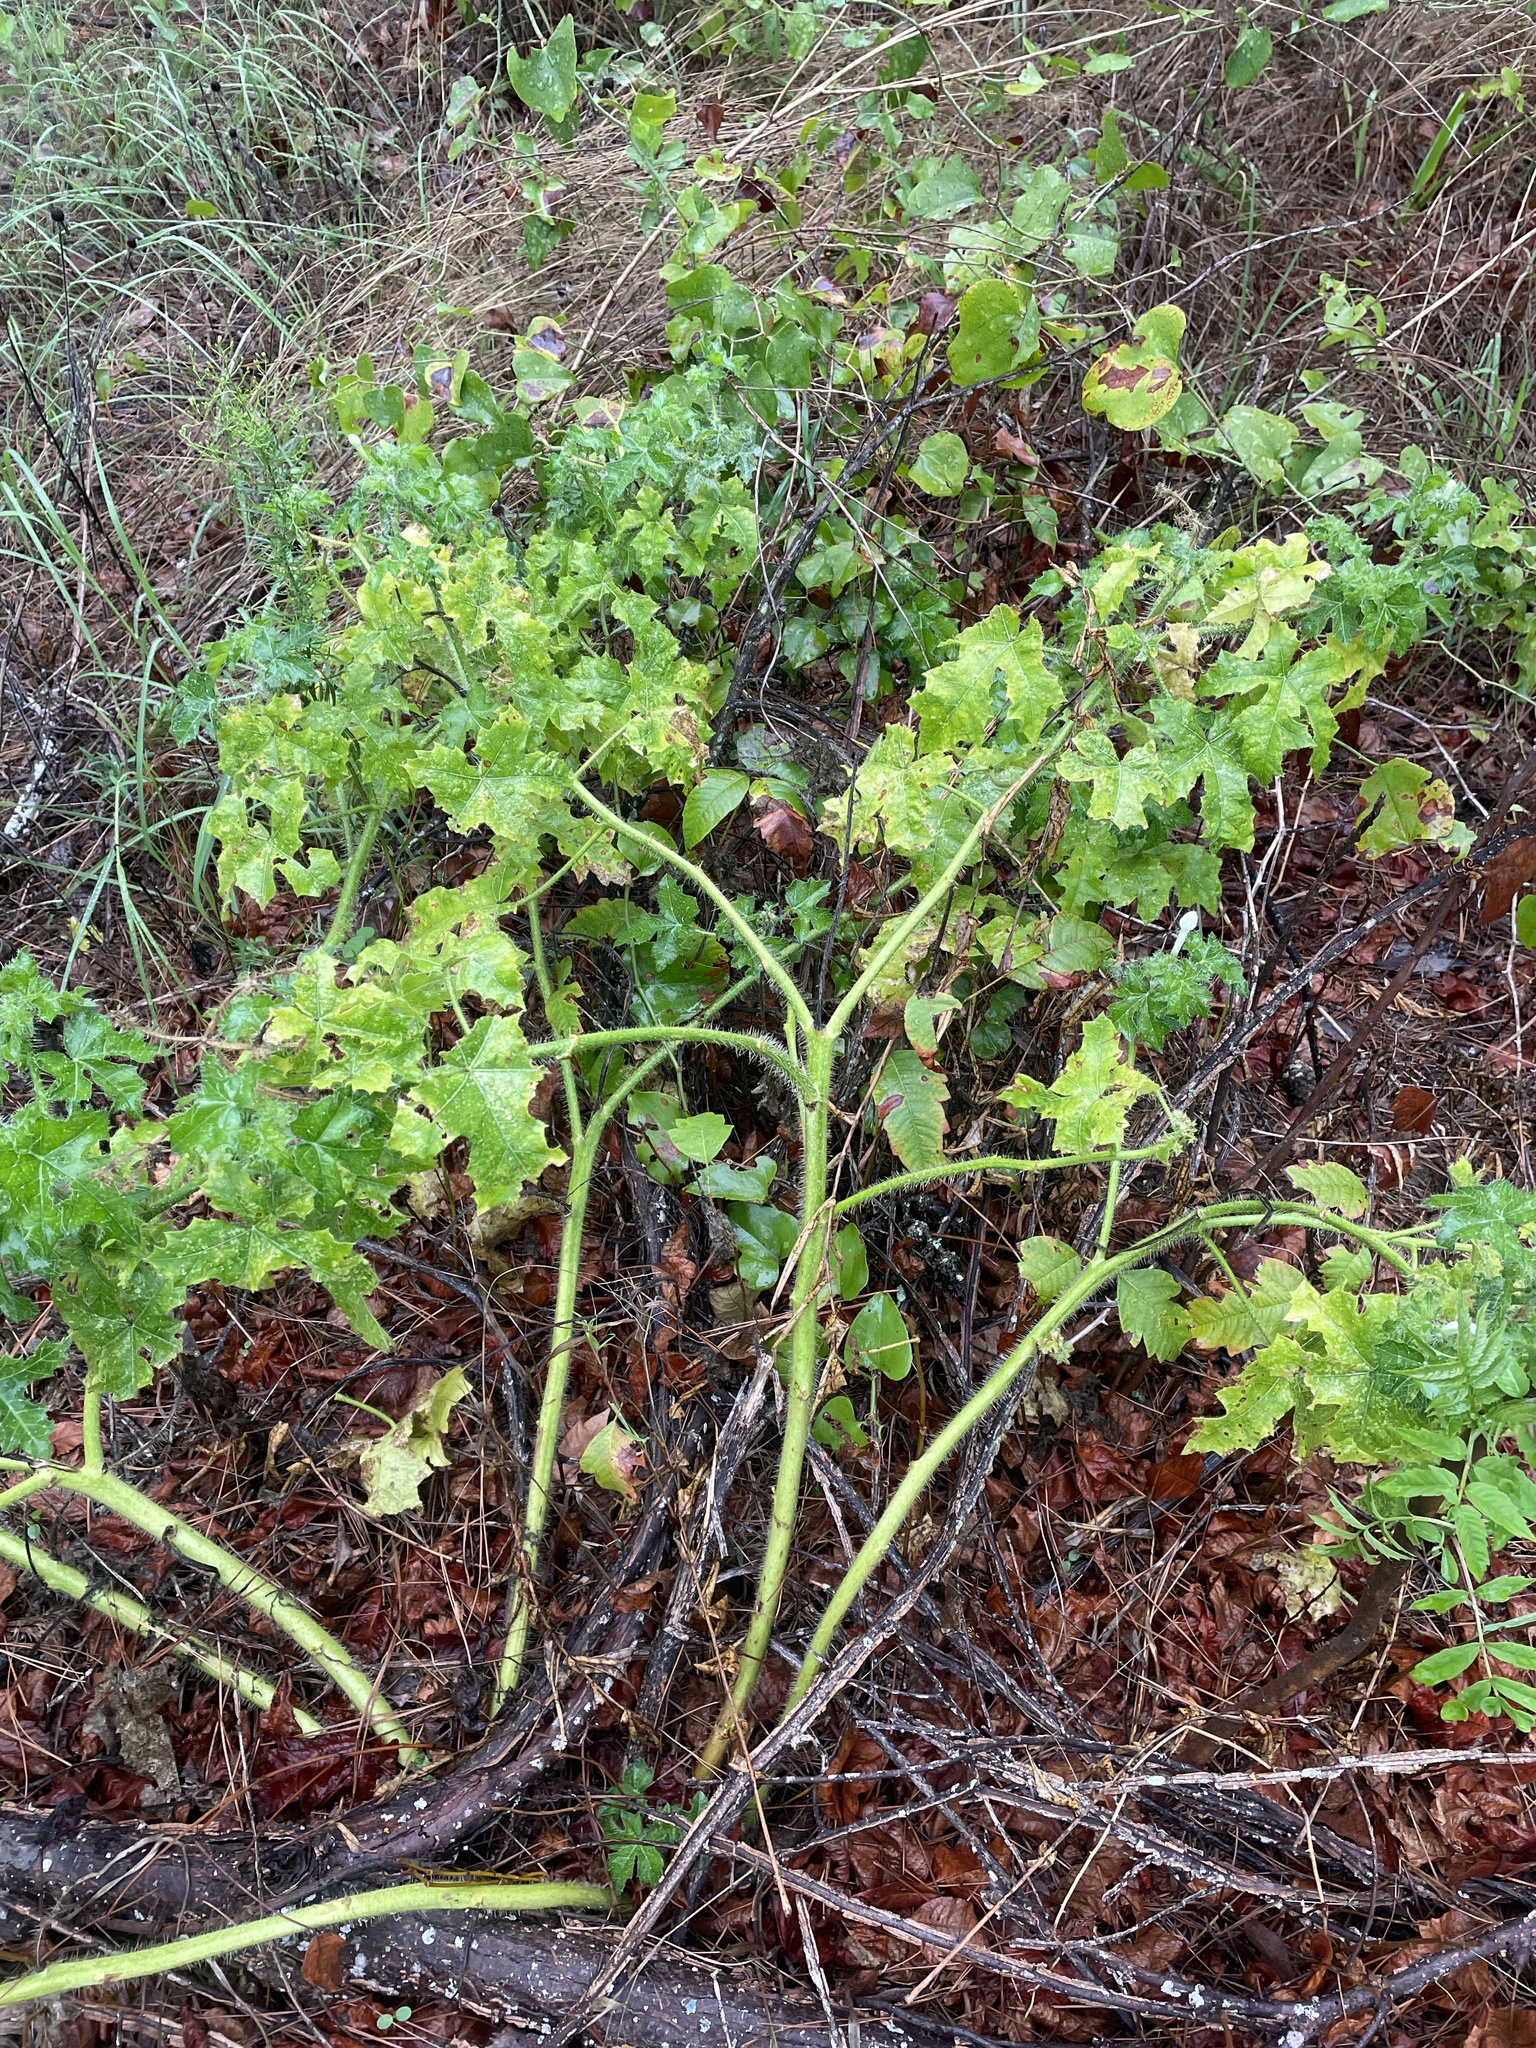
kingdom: Plantae
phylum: Tracheophyta
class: Magnoliopsida
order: Malpighiales
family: Euphorbiaceae
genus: Cnidoscolus
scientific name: Cnidoscolus texanus
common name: Texas bull-nettle
